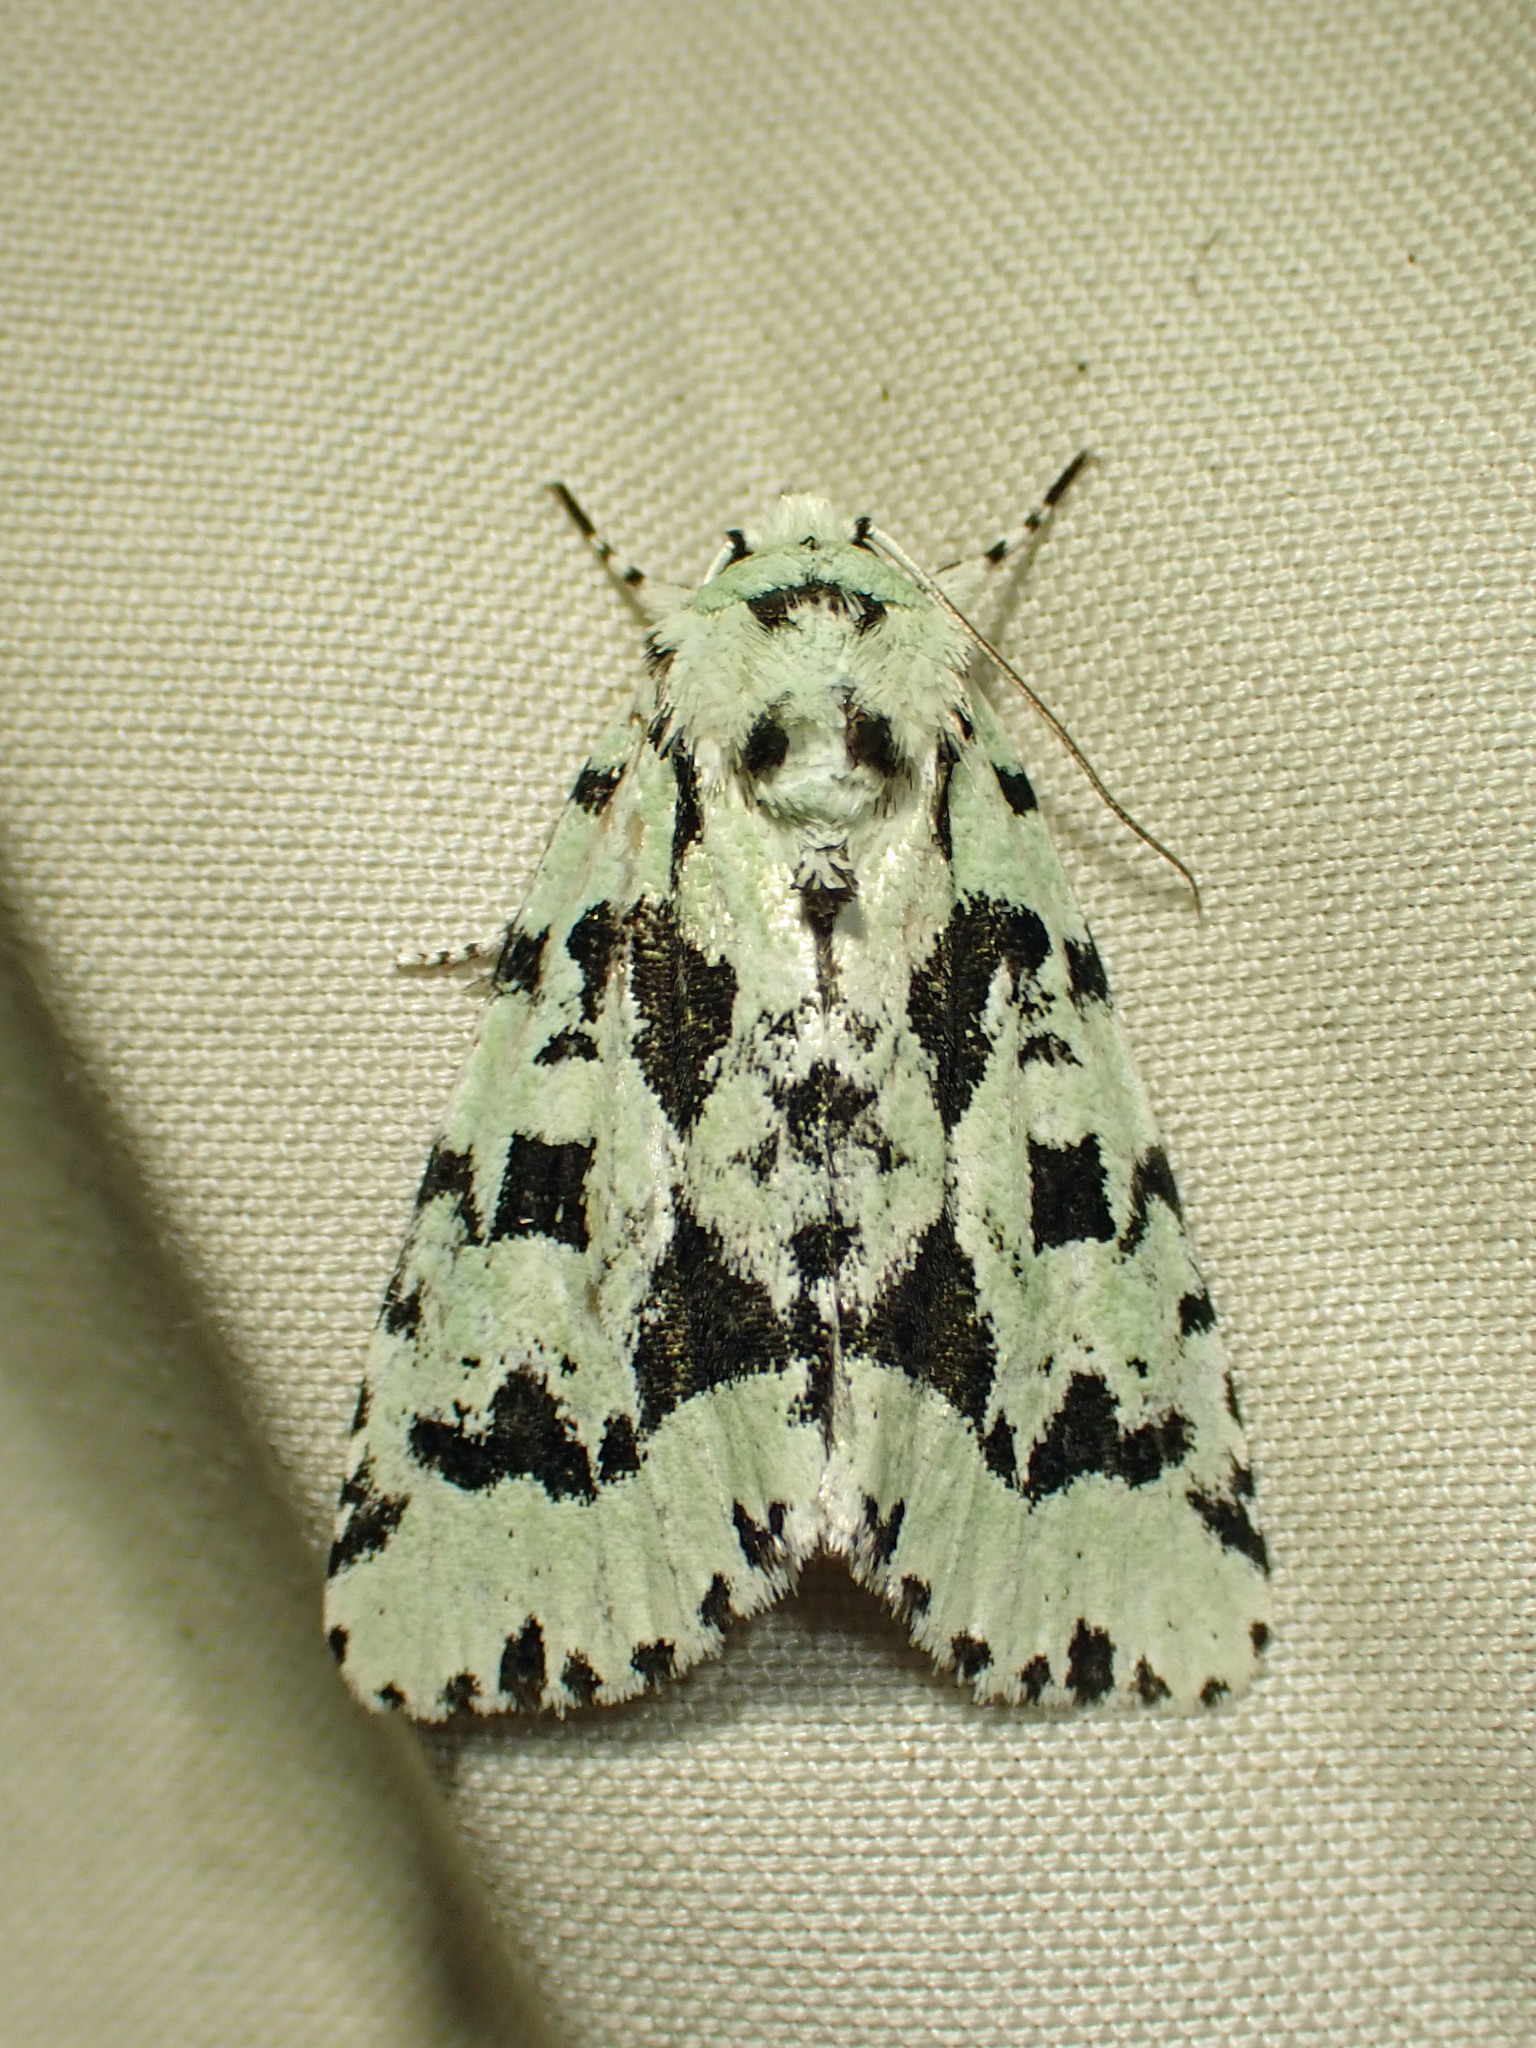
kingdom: Animalia
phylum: Arthropoda
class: Insecta
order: Lepidoptera
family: Noctuidae
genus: Acronicta
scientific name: Acronicta fallax
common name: Green marvel
